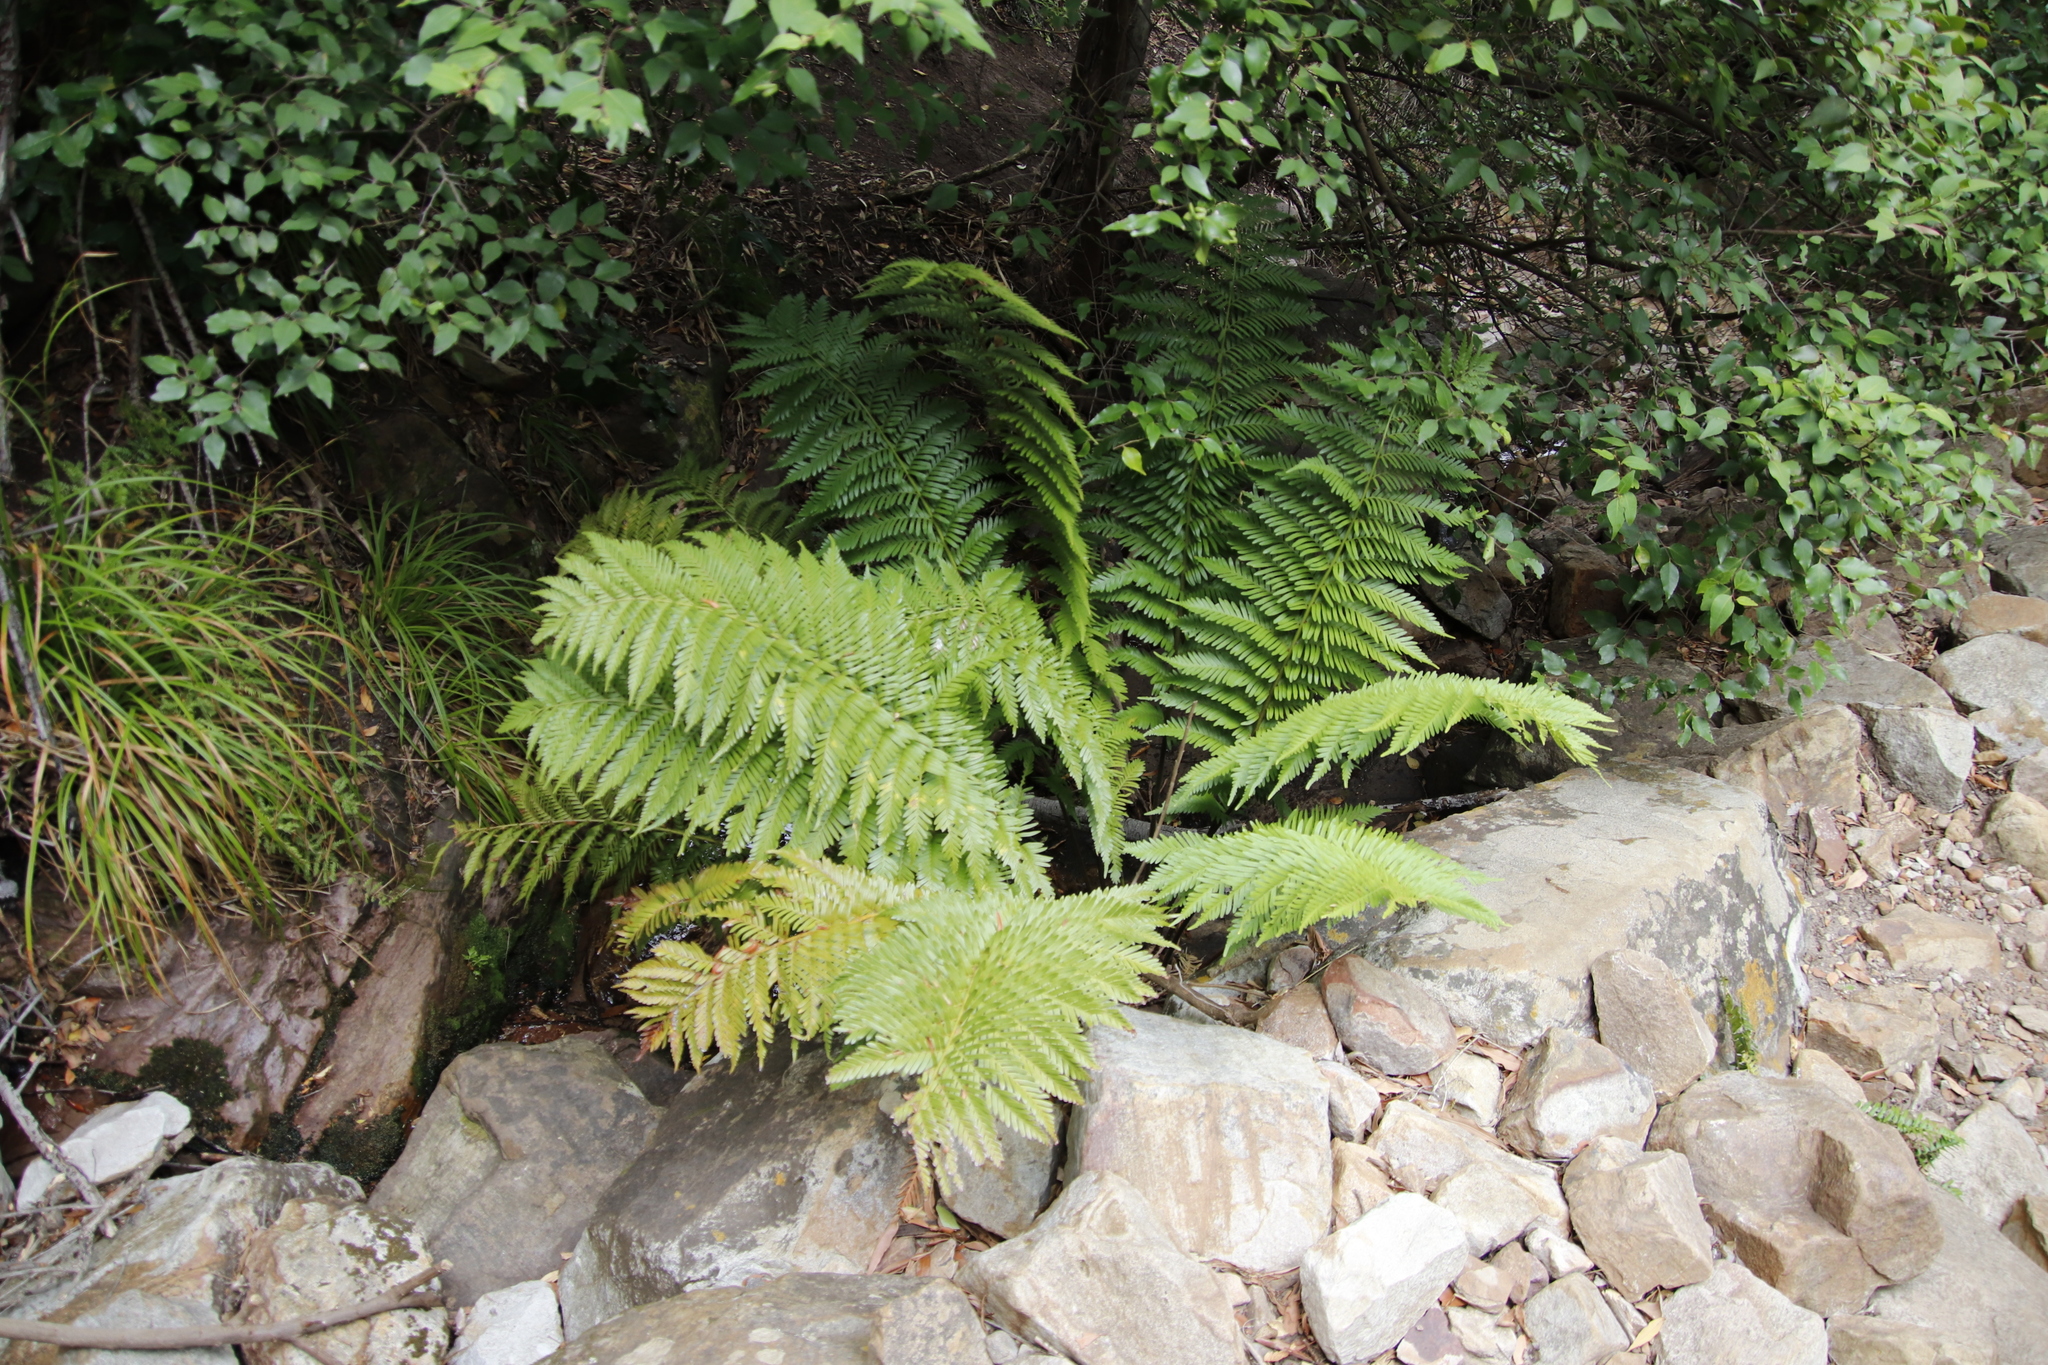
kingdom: Plantae
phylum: Tracheophyta
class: Polypodiopsida
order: Osmundales
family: Osmundaceae
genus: Todea
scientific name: Todea barbara
